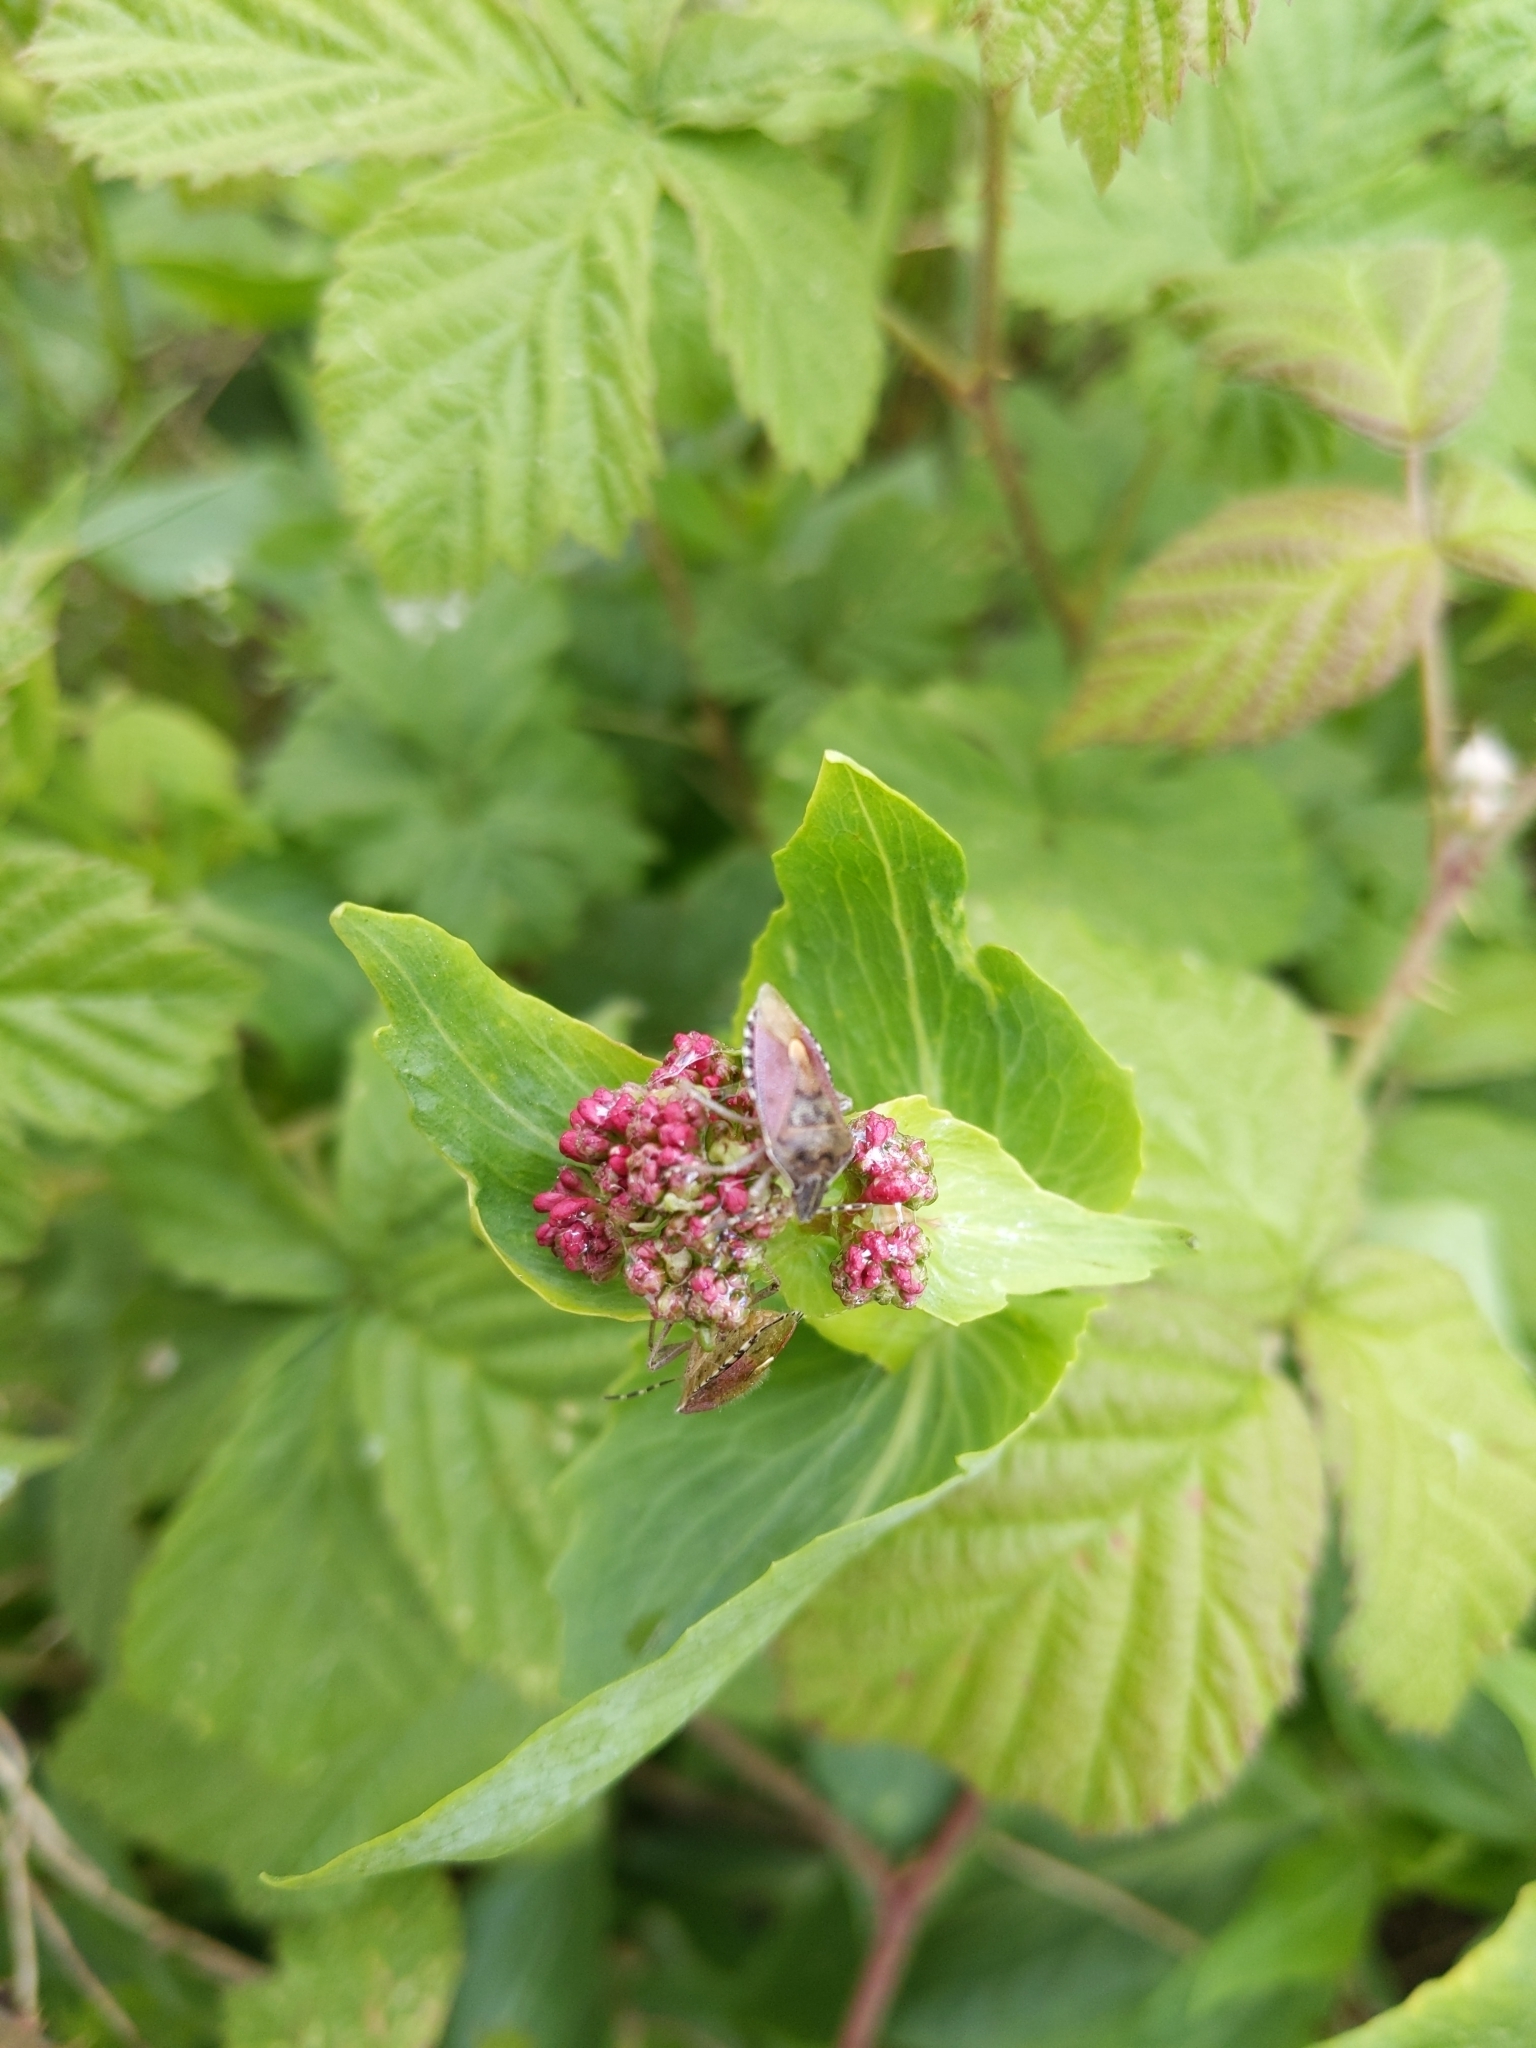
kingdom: Animalia
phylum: Arthropoda
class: Insecta
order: Hemiptera
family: Pentatomidae
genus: Dolycoris
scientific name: Dolycoris baccarum
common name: Sloe bug
